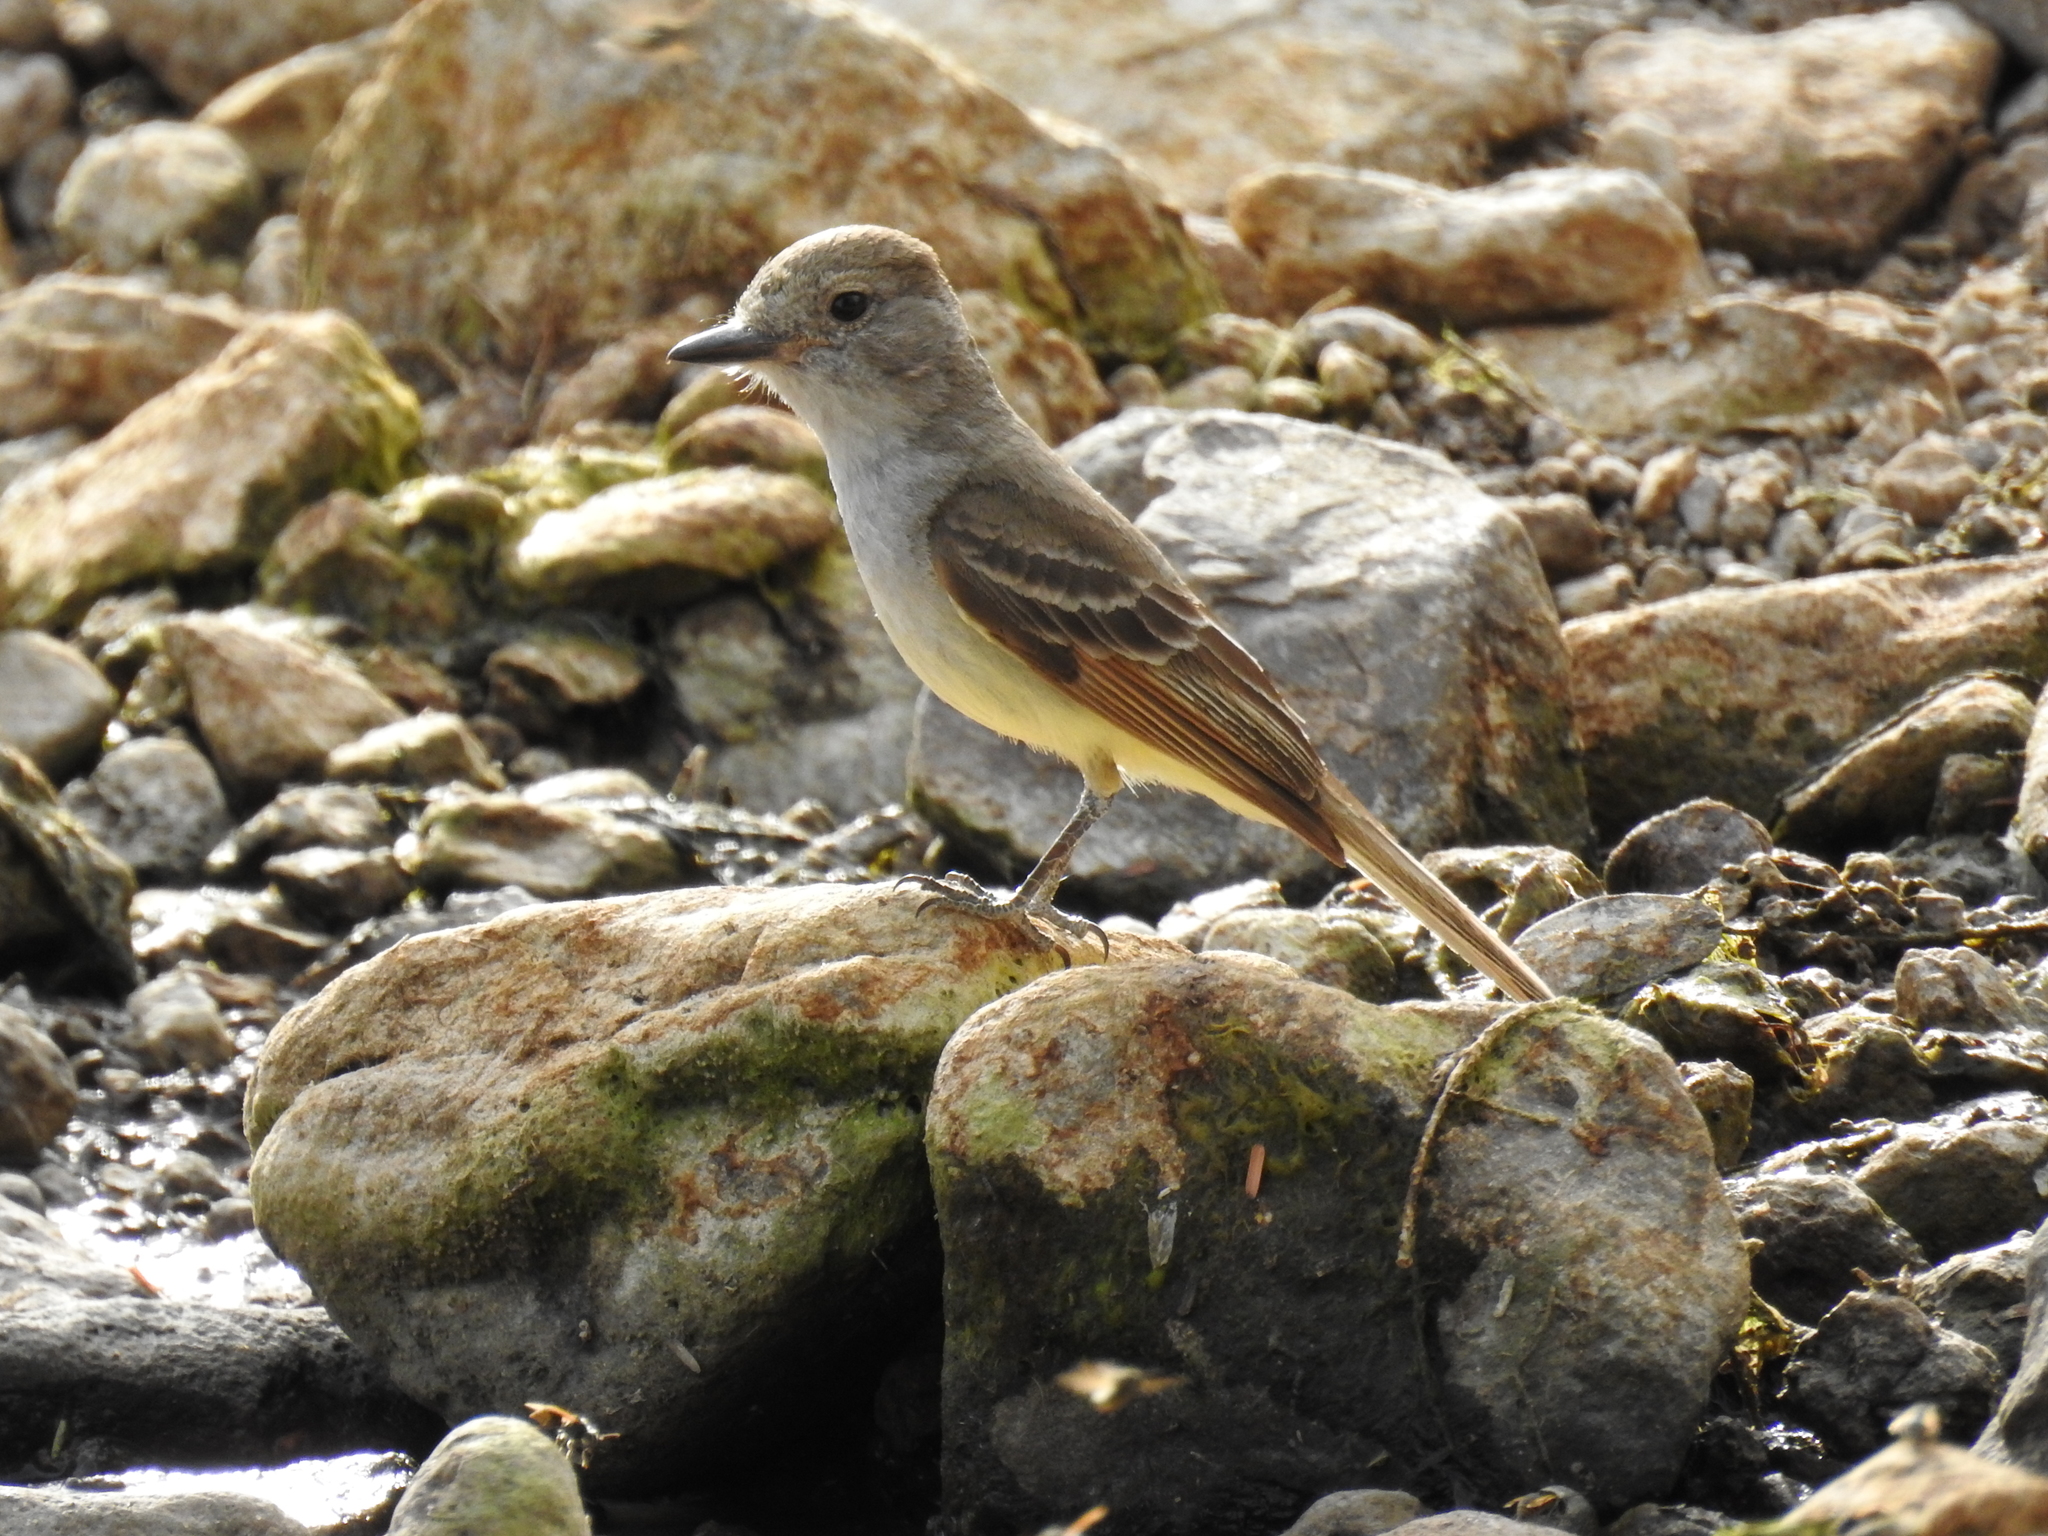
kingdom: Animalia
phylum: Chordata
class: Aves
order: Passeriformes
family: Tyrannidae
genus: Myiarchus
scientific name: Myiarchus nuttingi
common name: Nutting's flycatcher
